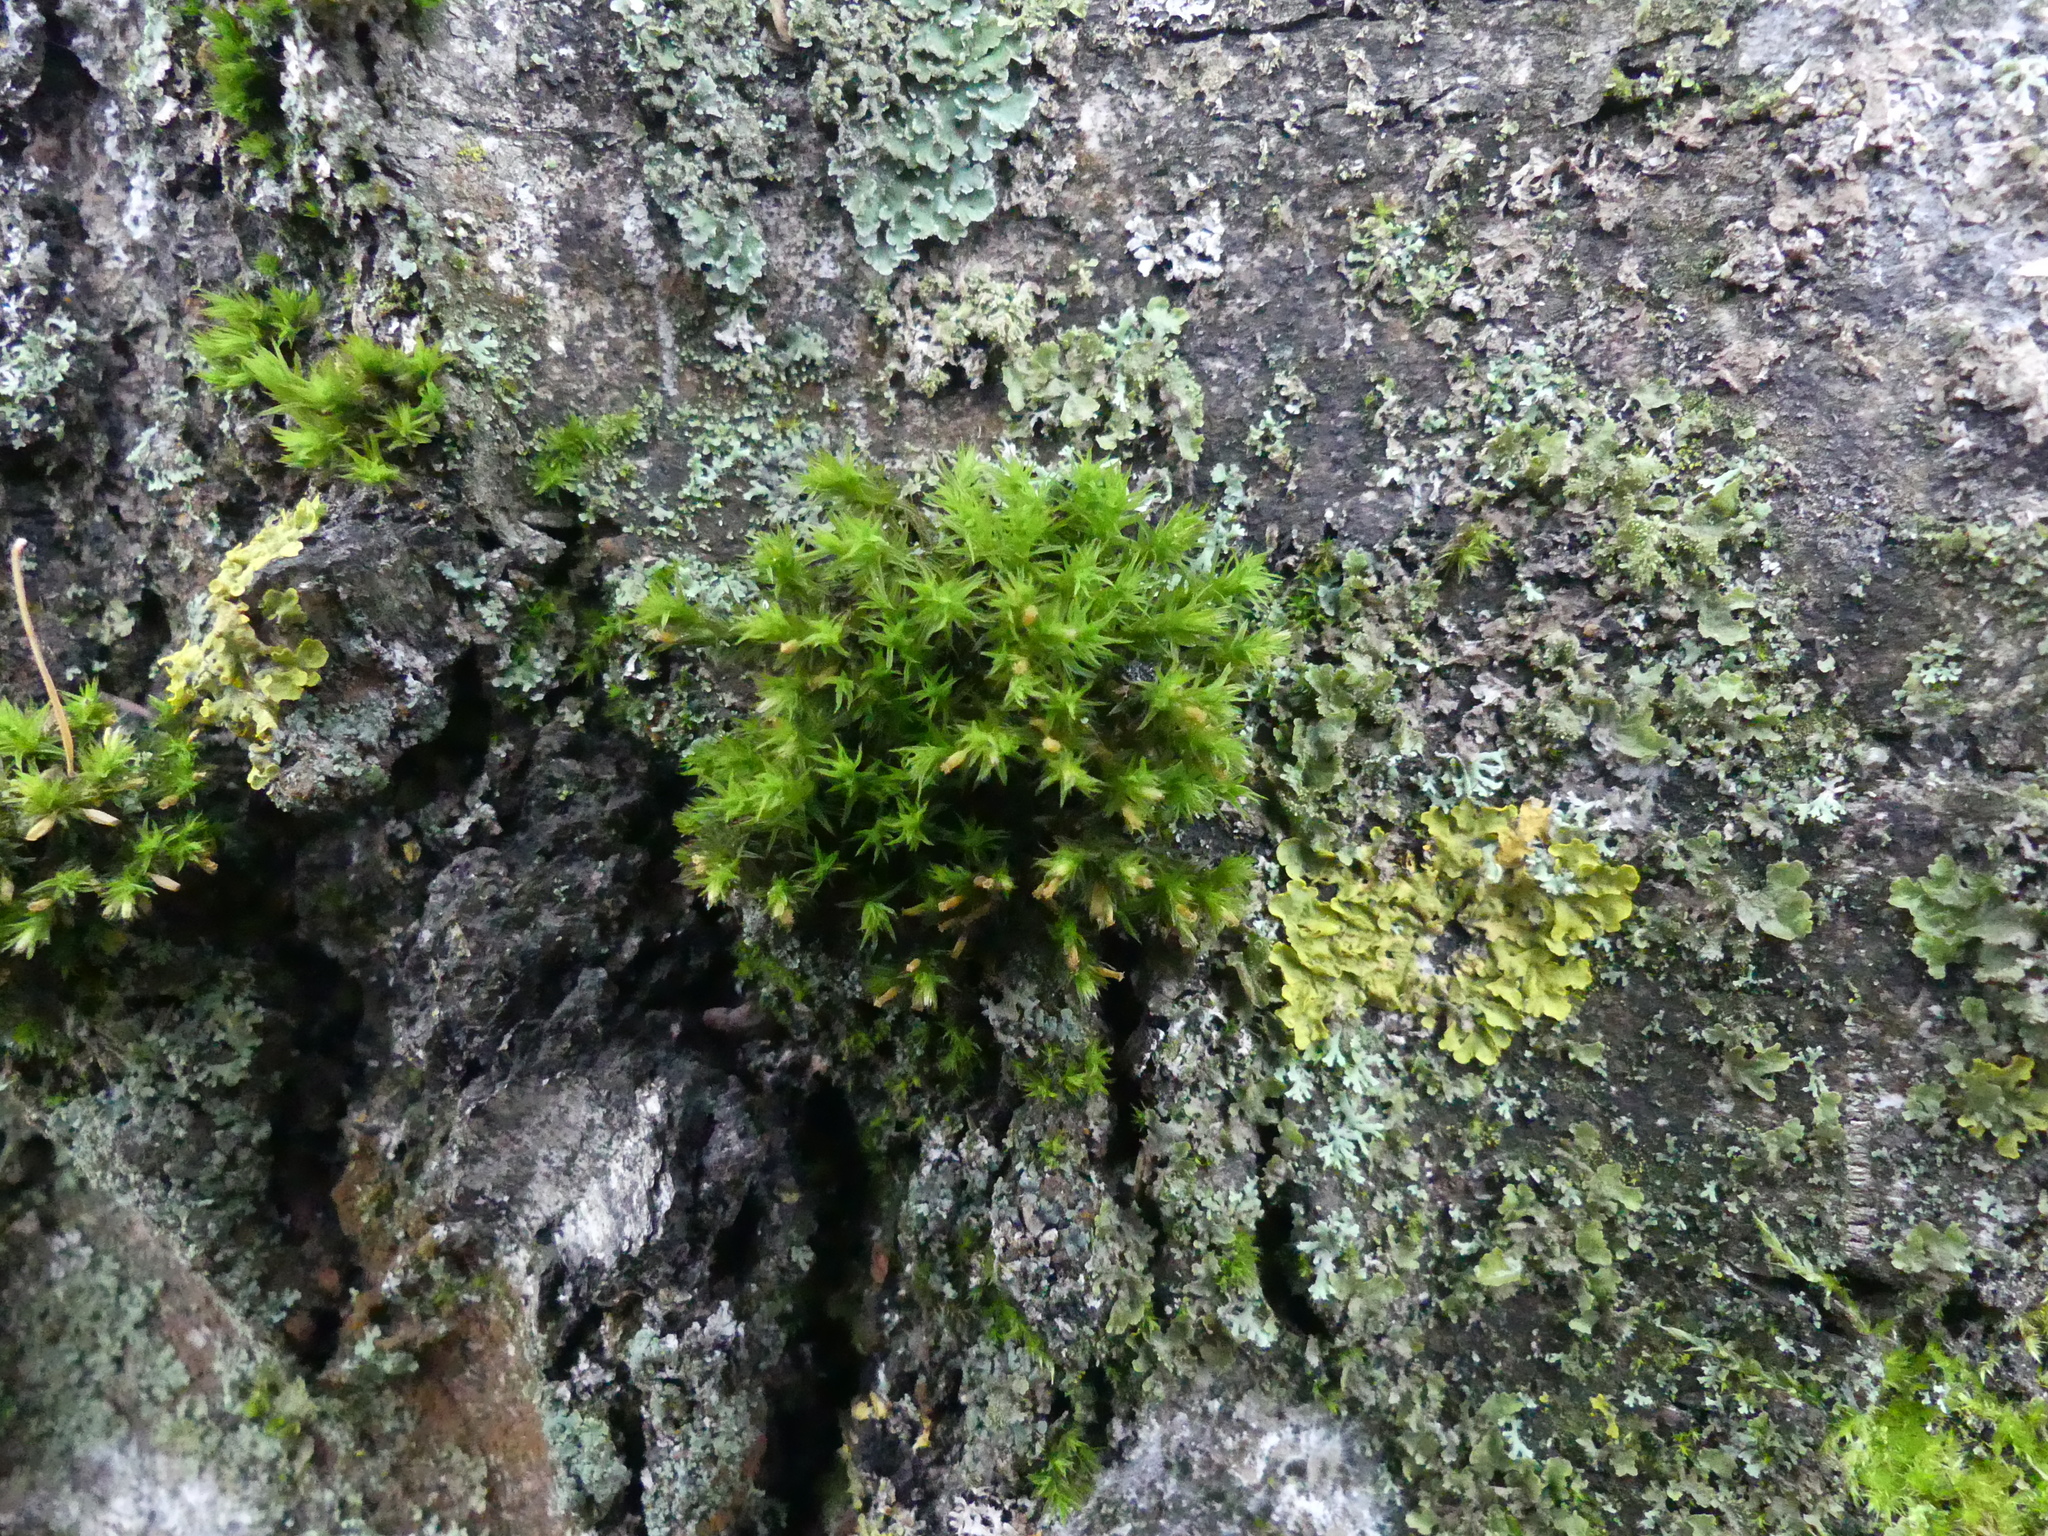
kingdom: Plantae
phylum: Bryophyta
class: Bryopsida
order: Orthotrichales
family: Orthotrichaceae
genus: Lewinskya
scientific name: Lewinskya speciosa
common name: Showy bristle moss
